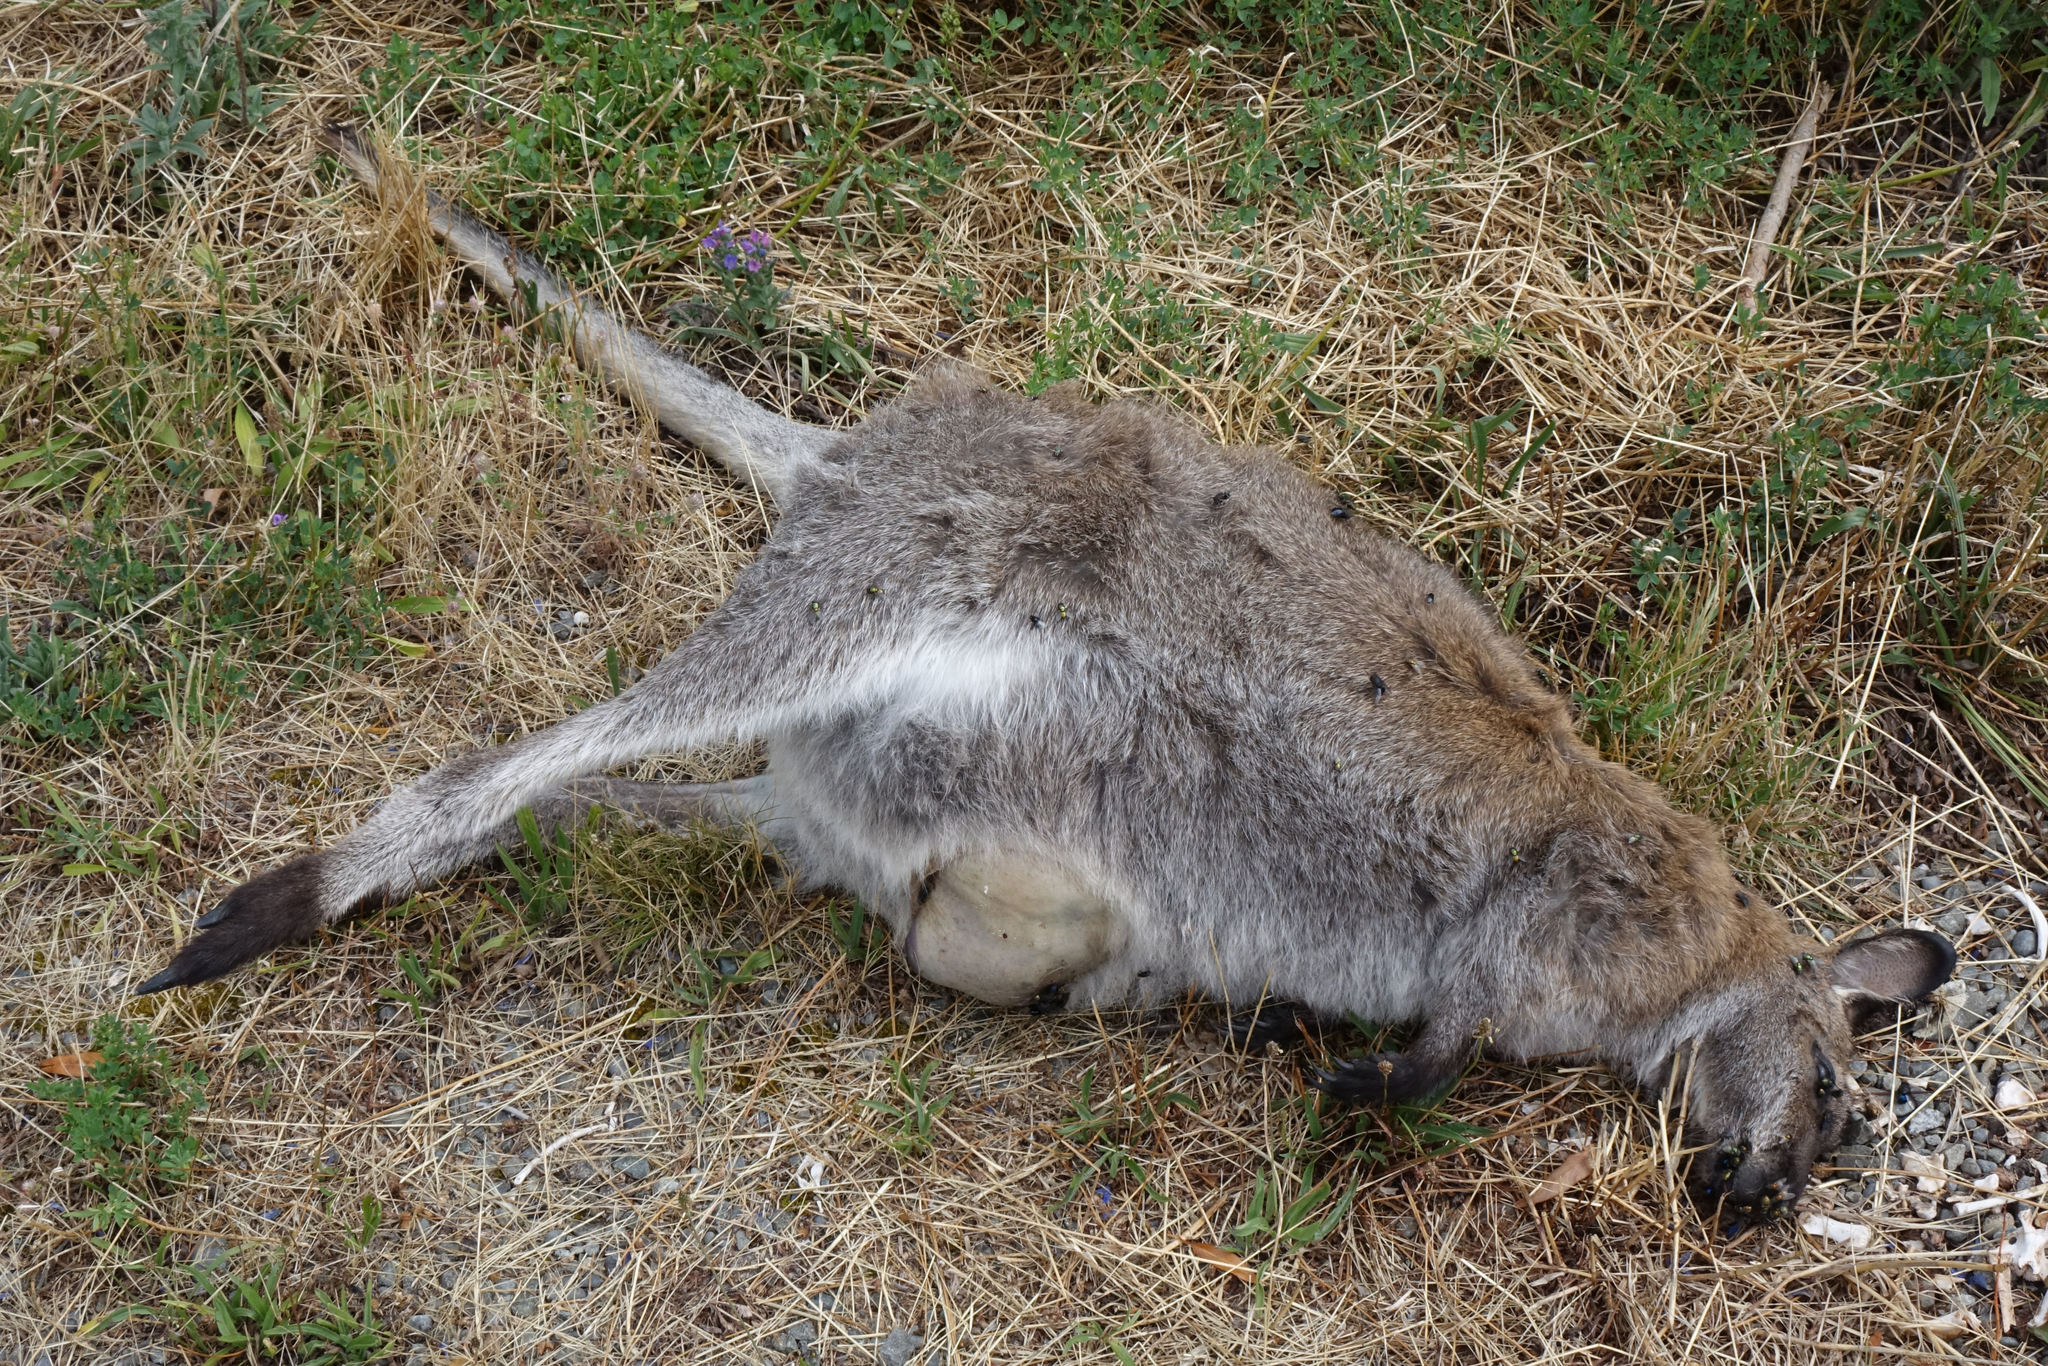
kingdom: Animalia
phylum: Chordata
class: Mammalia
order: Diprotodontia
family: Macropodidae
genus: Notamacropus
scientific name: Notamacropus rufogriseus
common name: Red-necked wallaby
